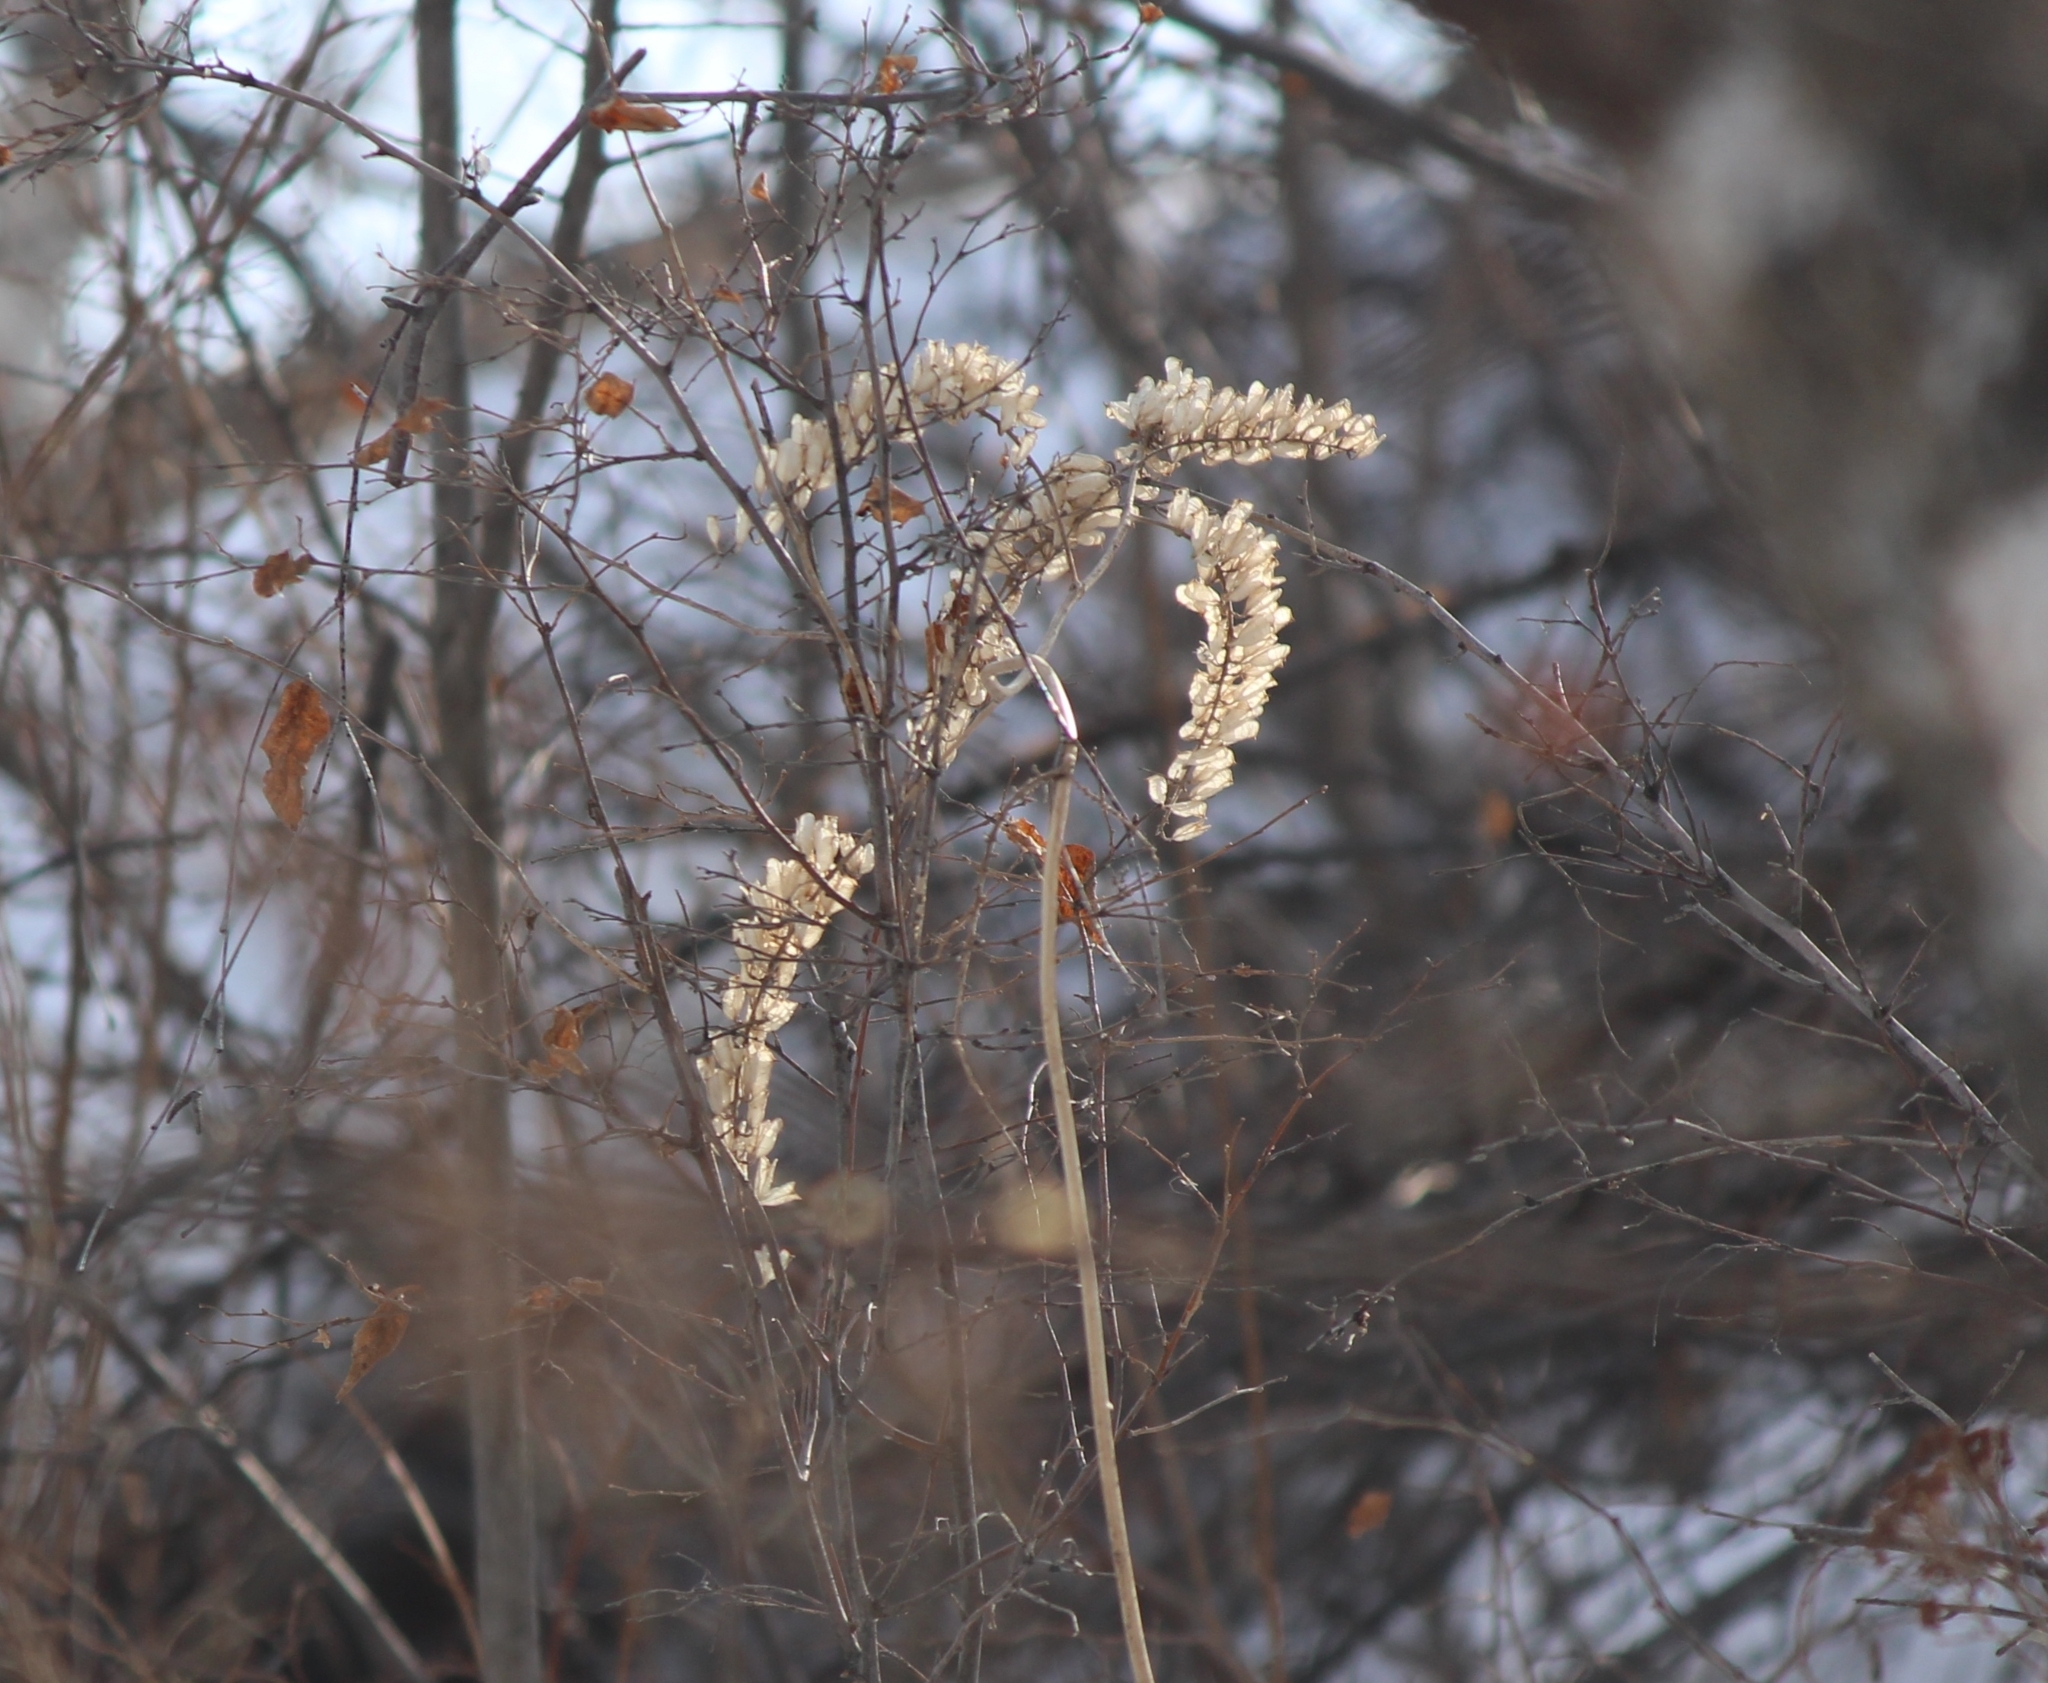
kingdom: Plantae
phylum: Tracheophyta
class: Magnoliopsida
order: Ranunculales
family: Ranunculaceae
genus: Actaea
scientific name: Actaea cimicifuga
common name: Chinese cimicifuga
